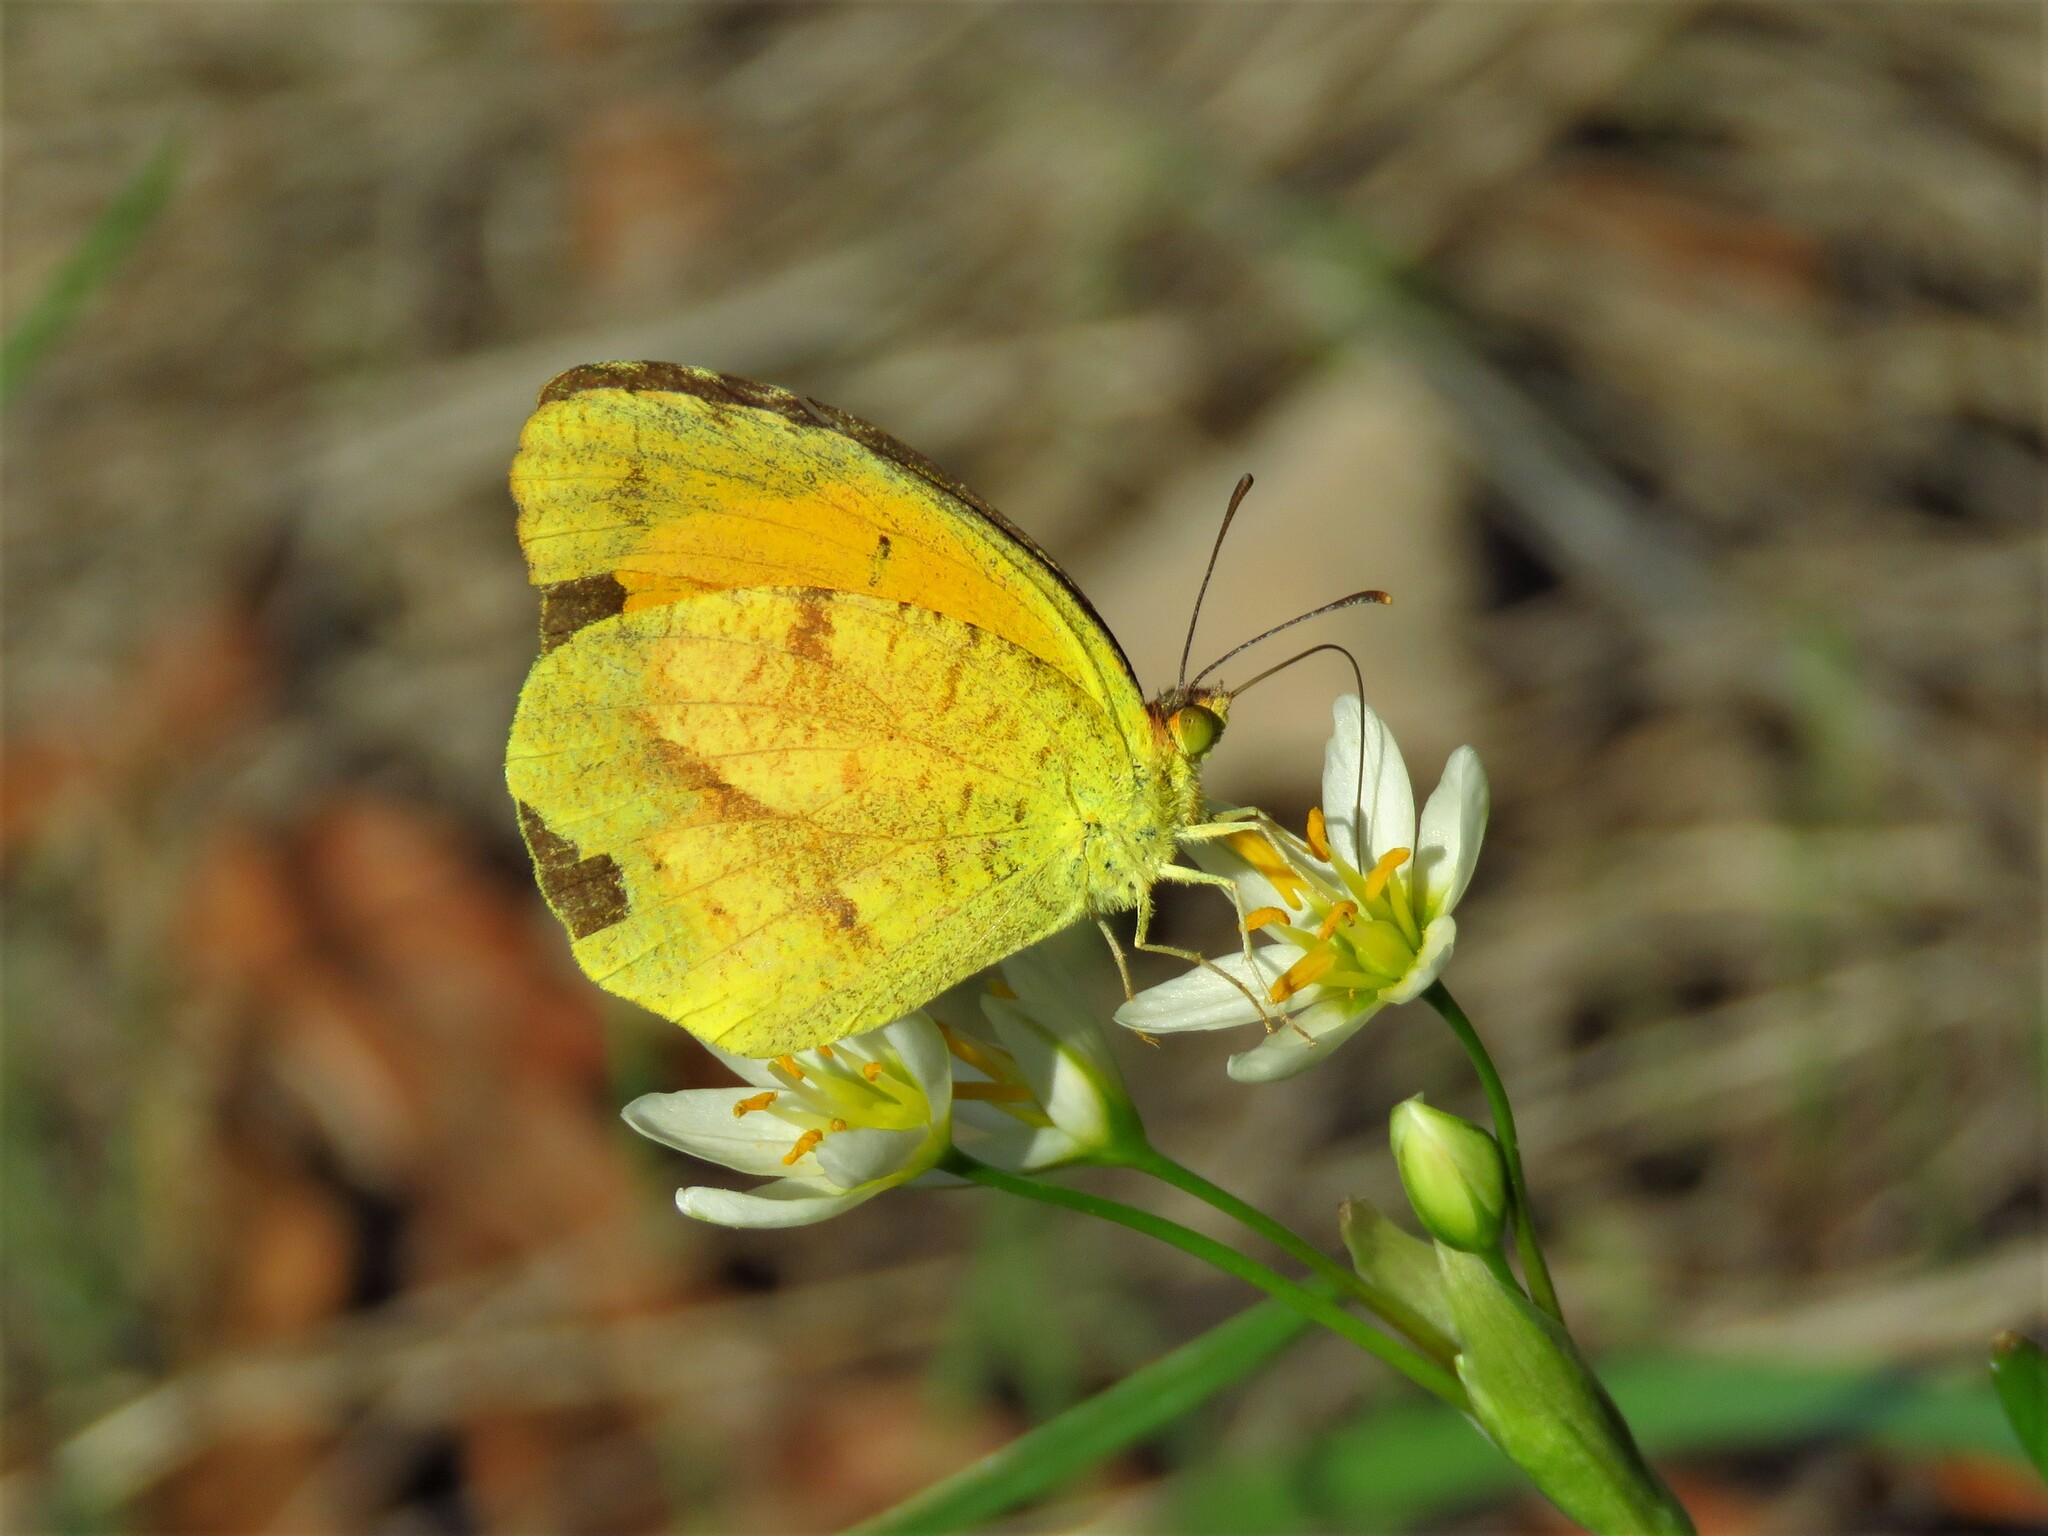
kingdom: Animalia
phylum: Arthropoda
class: Insecta
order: Lepidoptera
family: Pieridae
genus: Abaeis
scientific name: Abaeis nicippe
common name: Sleepy orange
